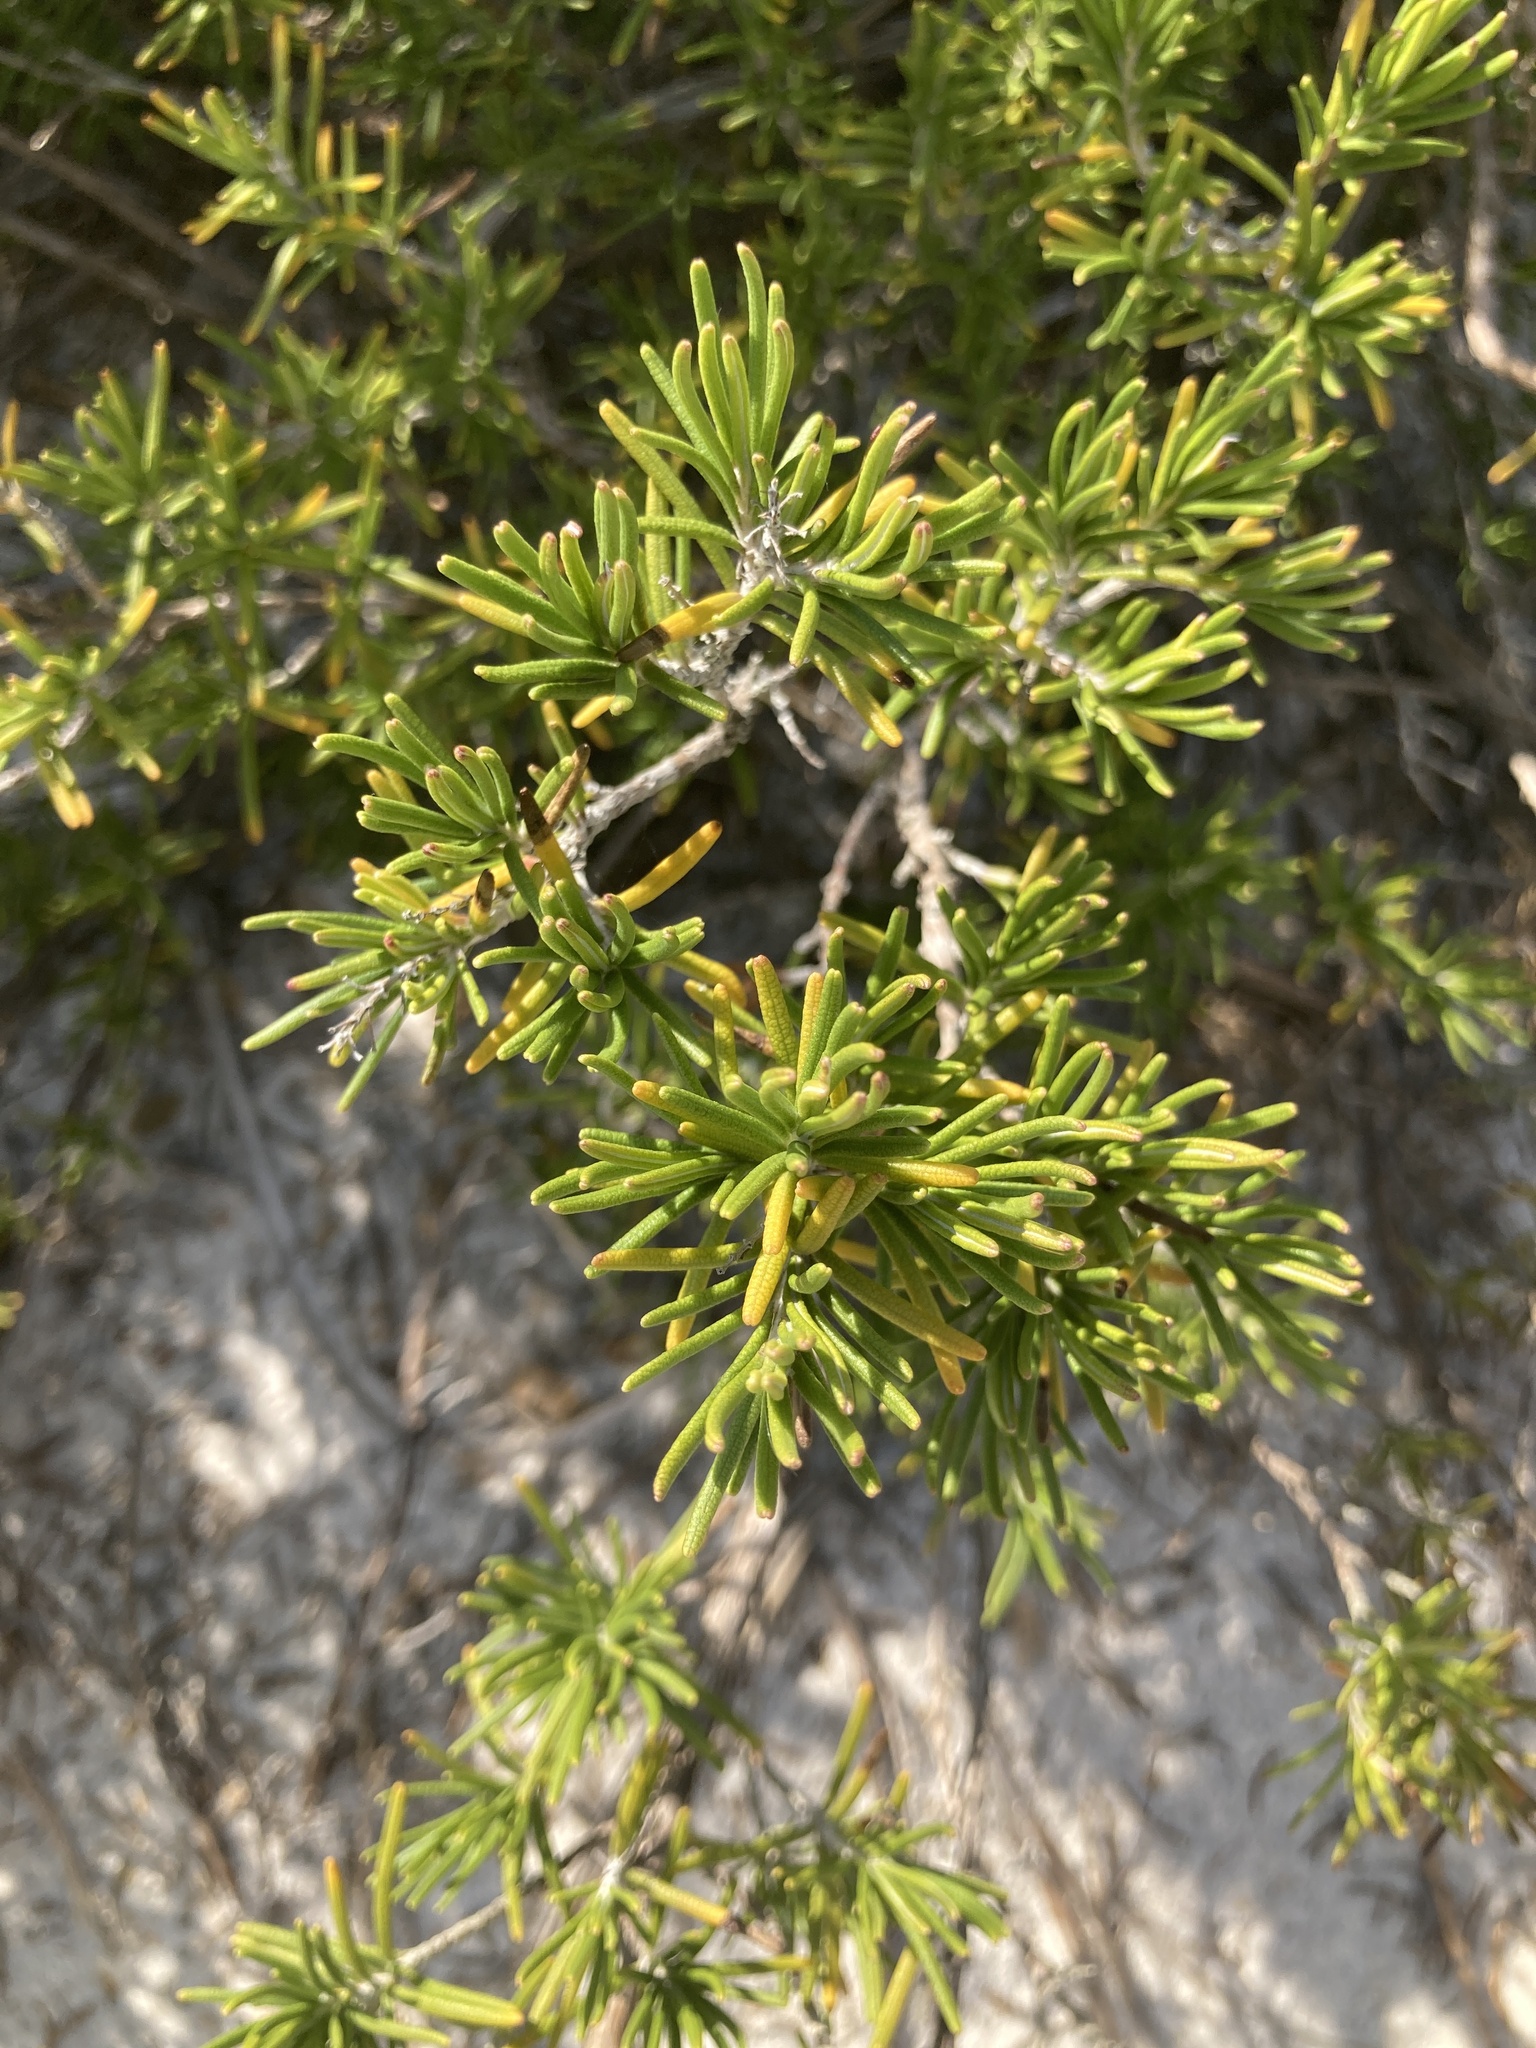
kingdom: Plantae
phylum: Tracheophyta
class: Magnoliopsida
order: Lamiales
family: Lamiaceae
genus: Conradina
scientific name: Conradina canescens
